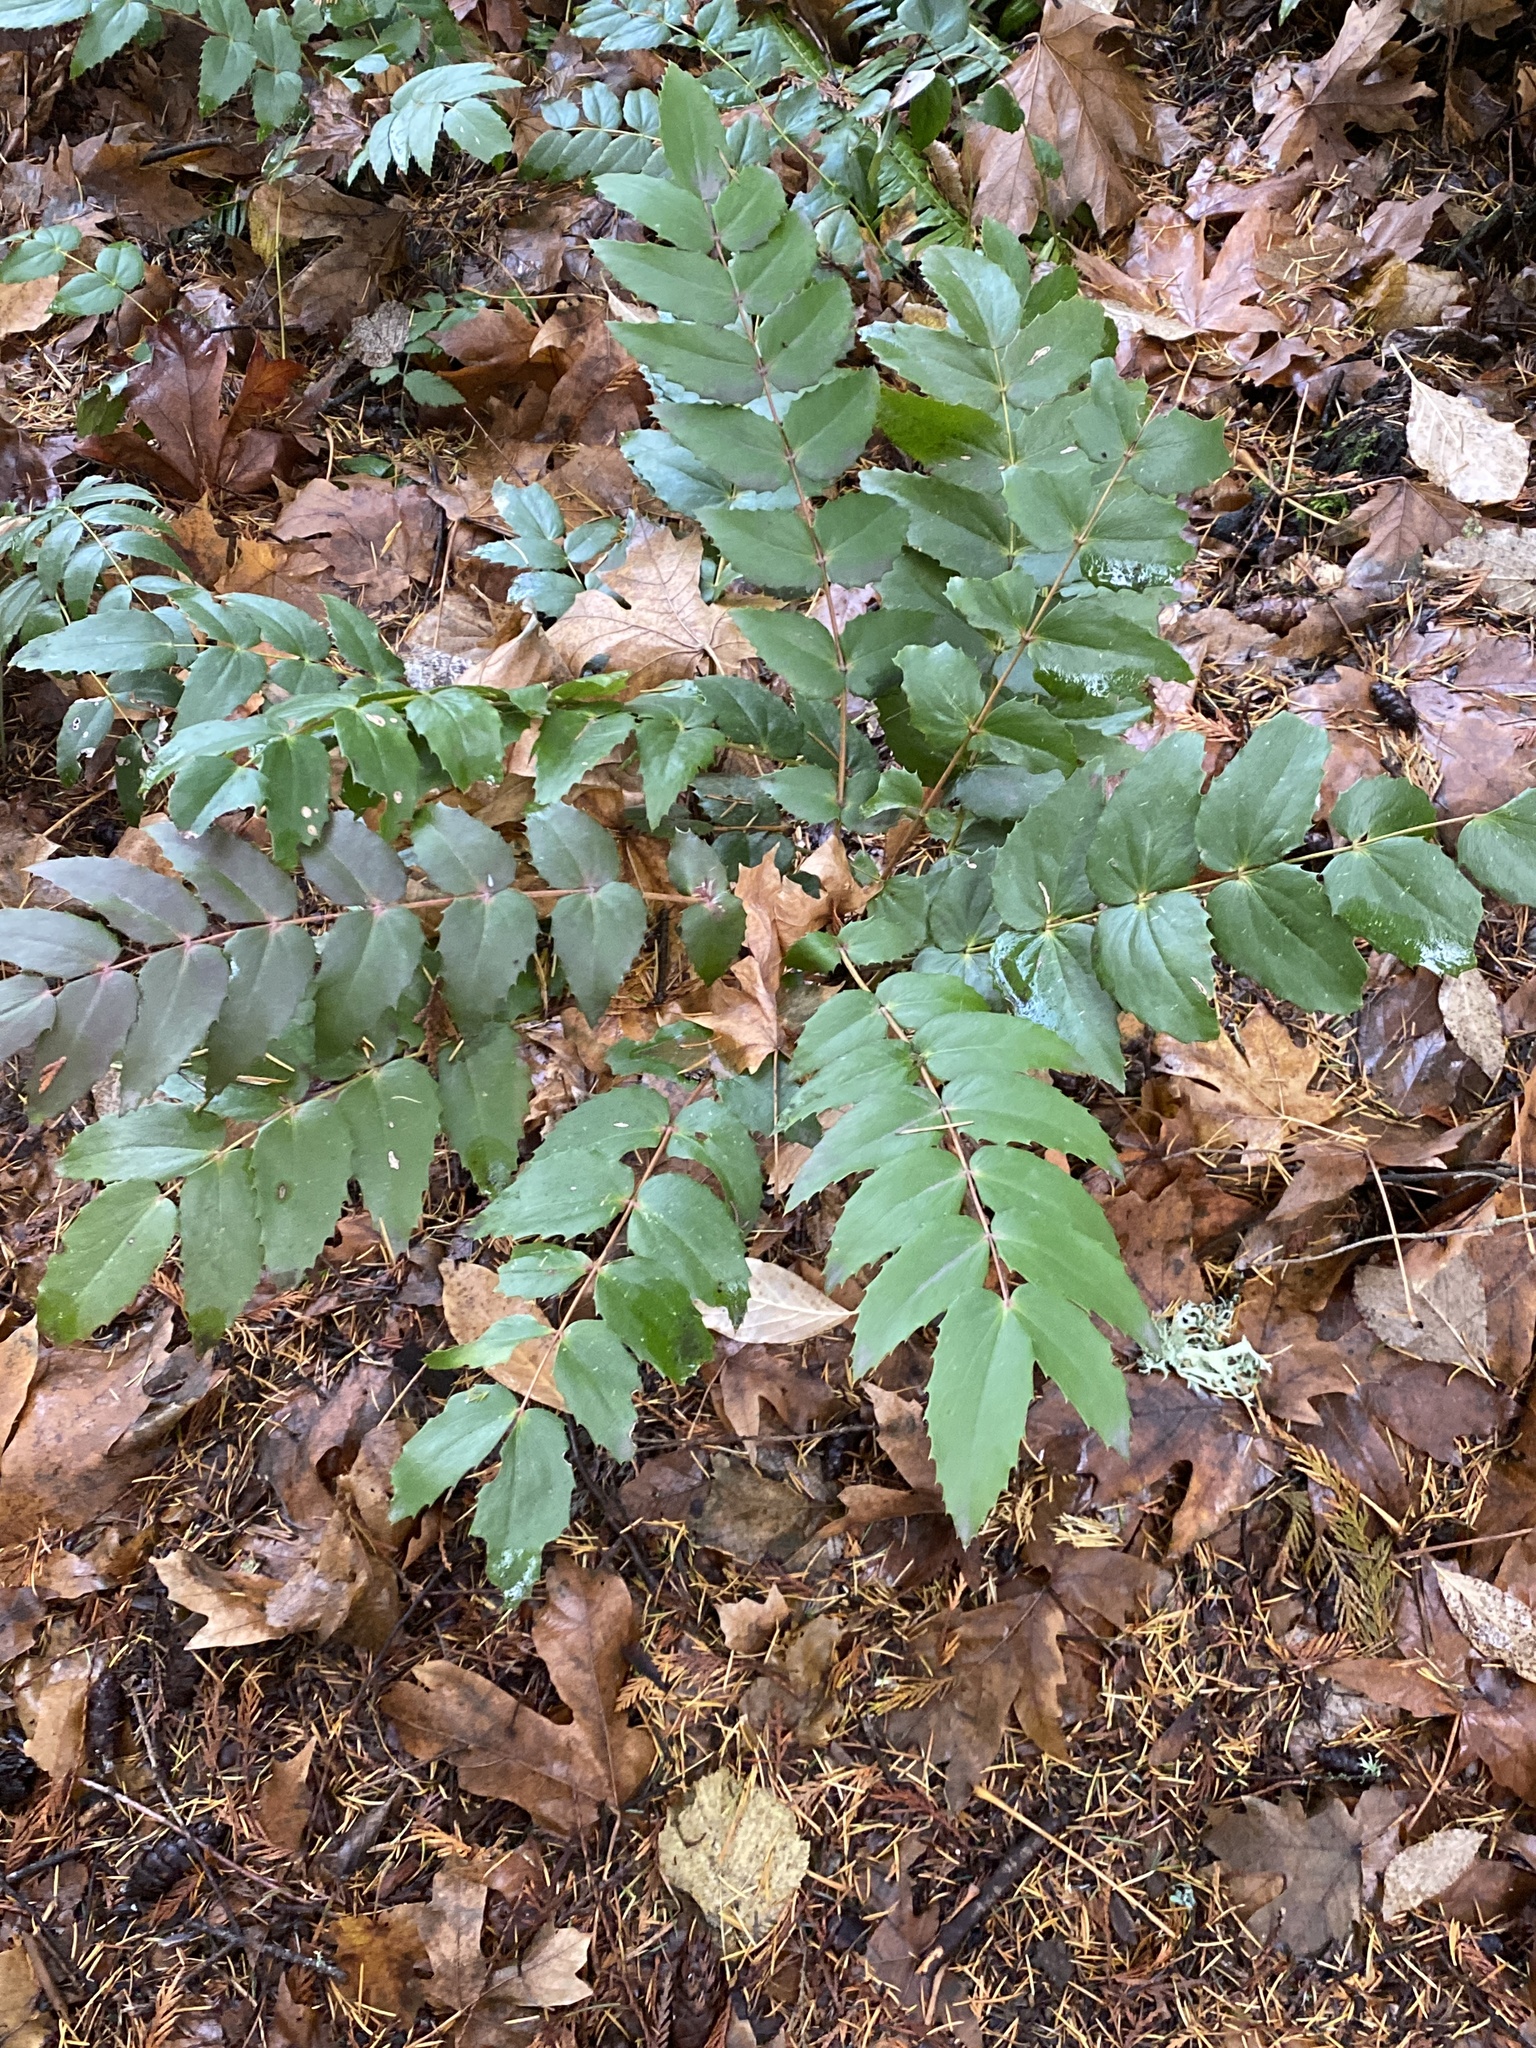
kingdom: Plantae
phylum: Tracheophyta
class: Magnoliopsida
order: Ranunculales
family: Berberidaceae
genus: Mahonia
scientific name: Mahonia nervosa
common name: Cascade oregon-grape
